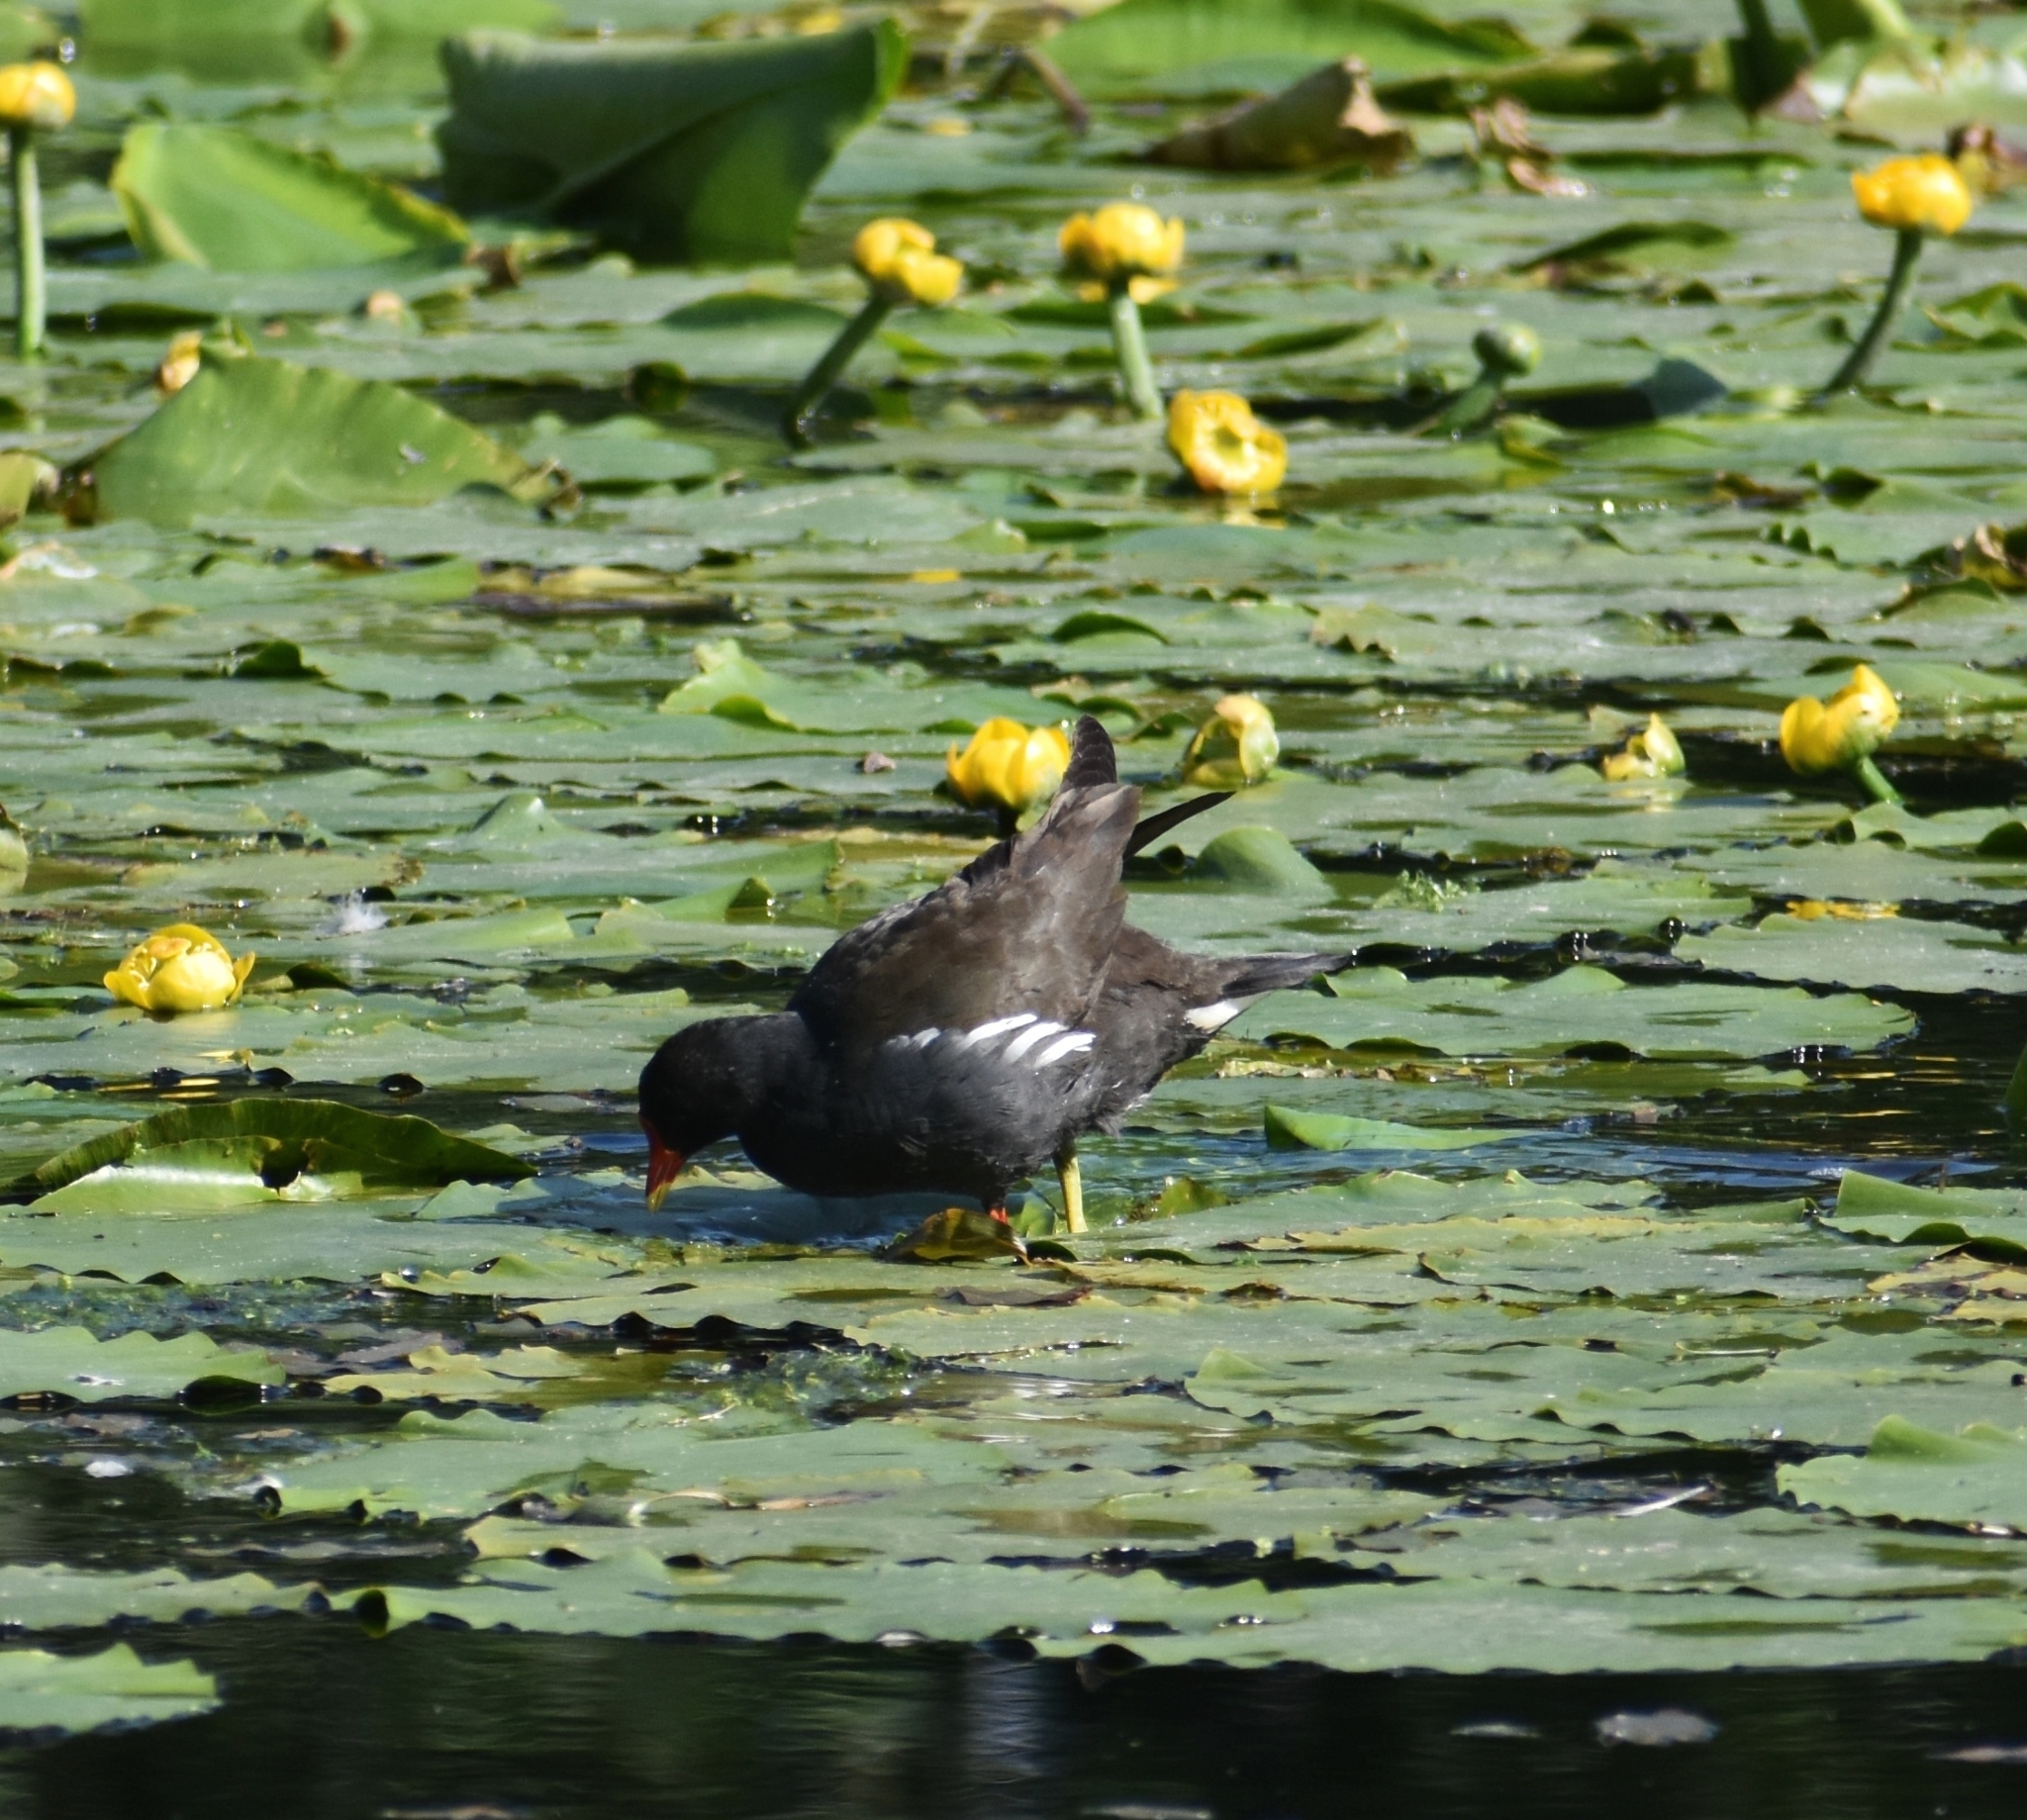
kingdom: Animalia
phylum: Chordata
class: Aves
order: Gruiformes
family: Rallidae
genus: Gallinula
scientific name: Gallinula chloropus
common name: Common moorhen
